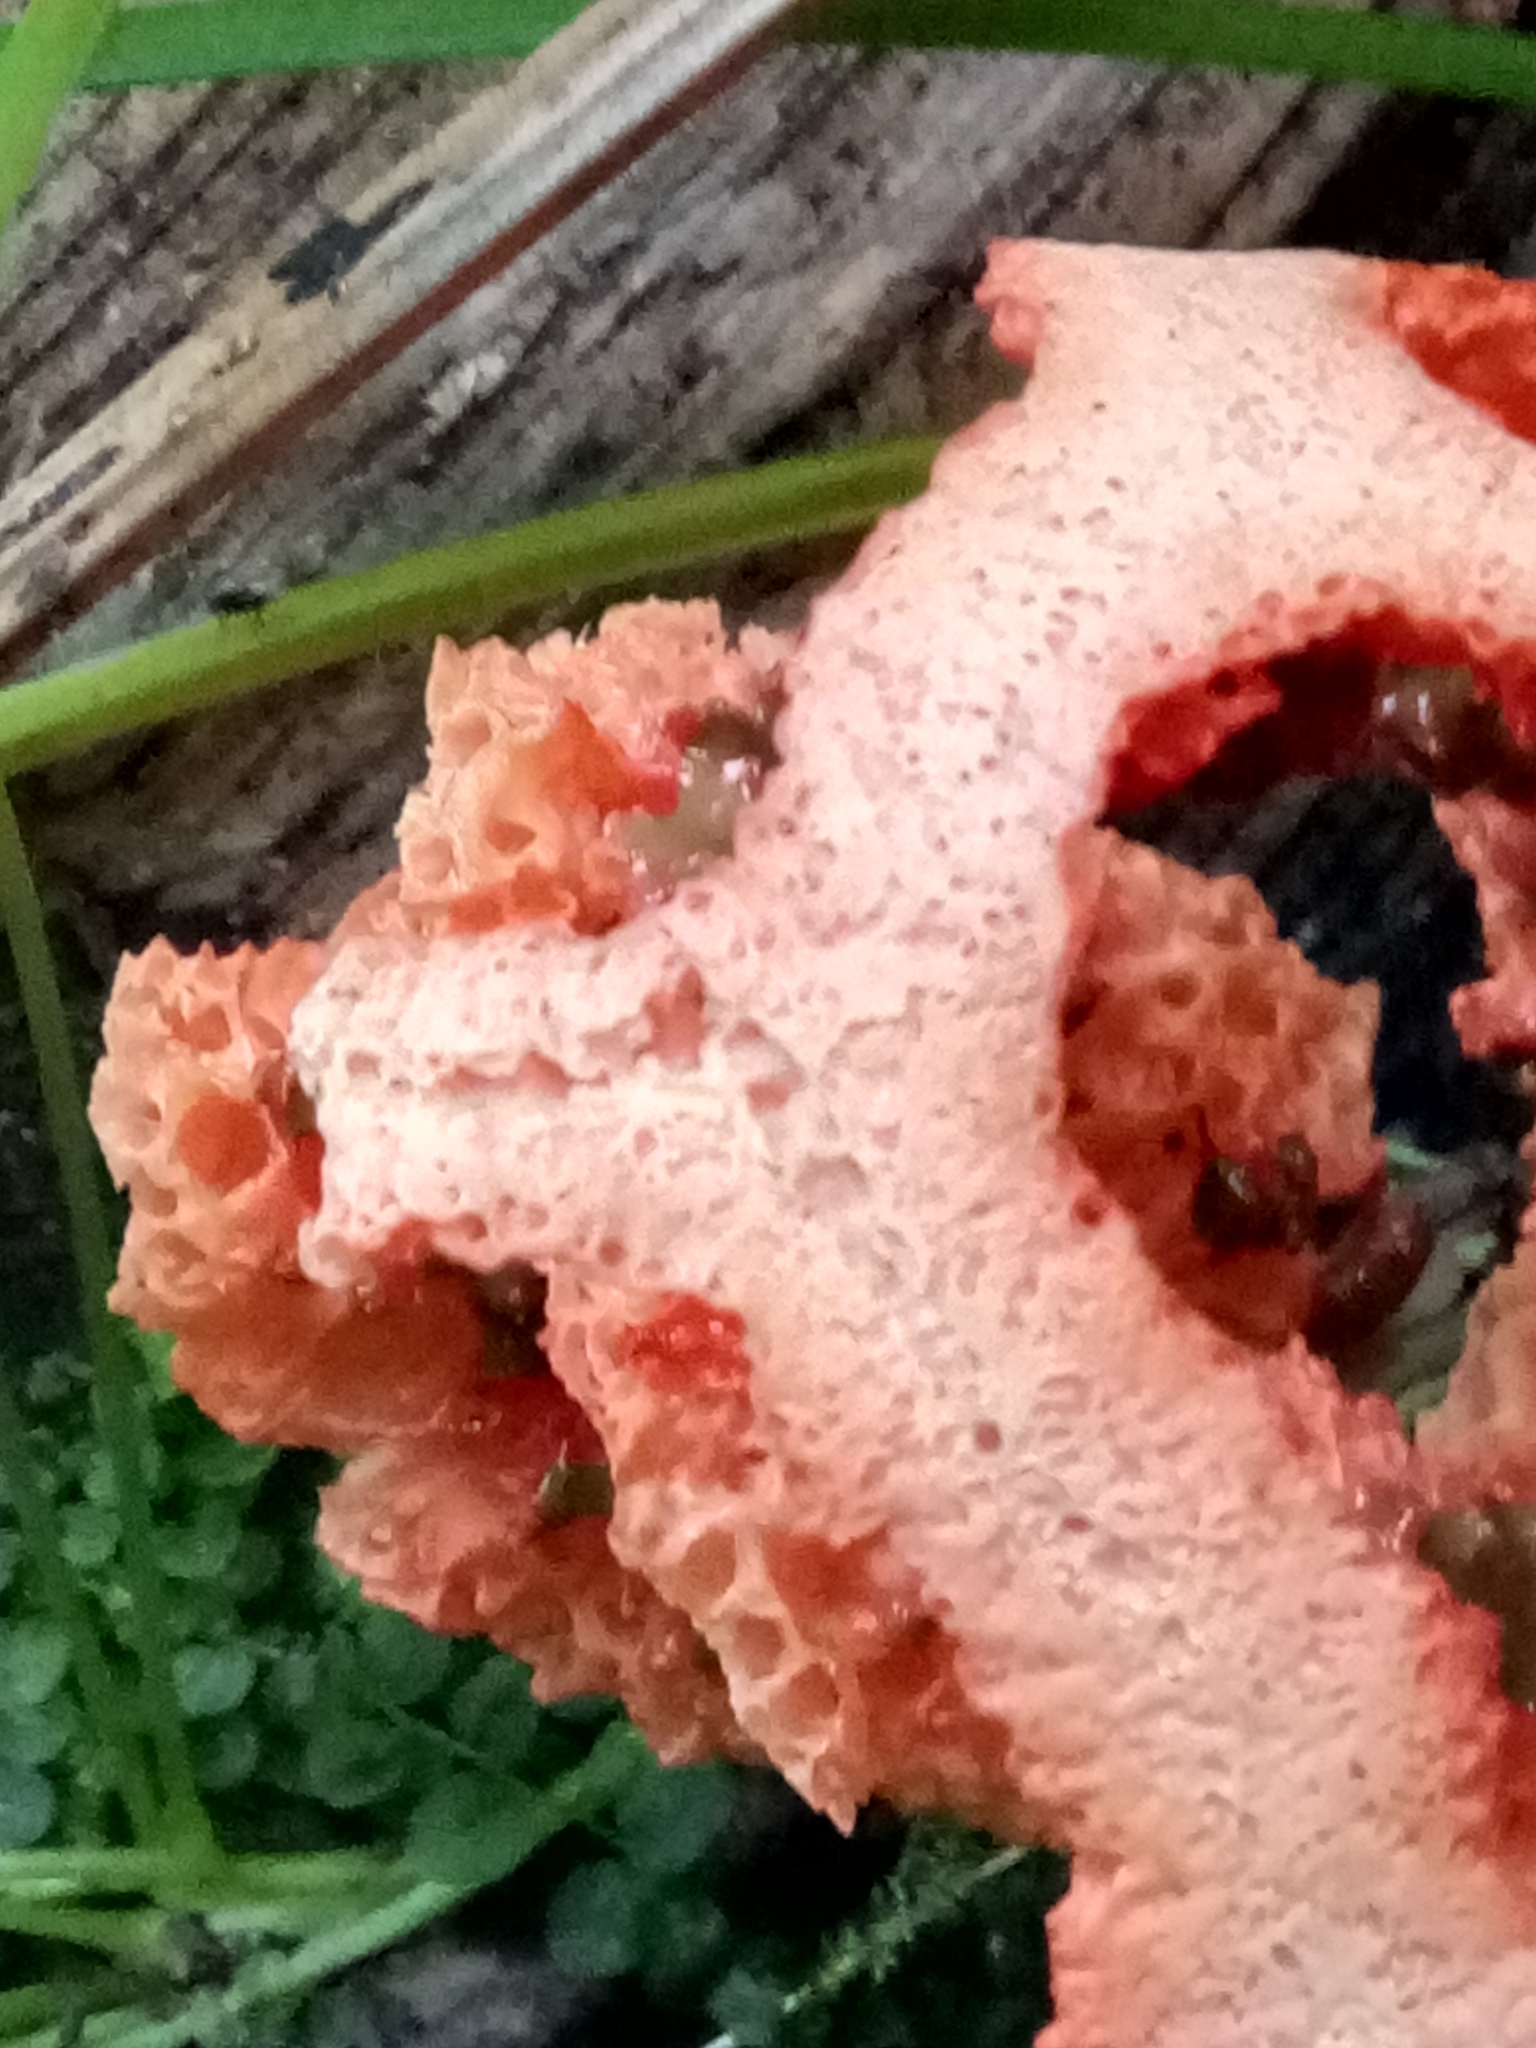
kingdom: Fungi
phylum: Basidiomycota
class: Agaricomycetes
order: Phallales
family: Phallaceae
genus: Clathrus
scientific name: Clathrus ruber
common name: Red cage
